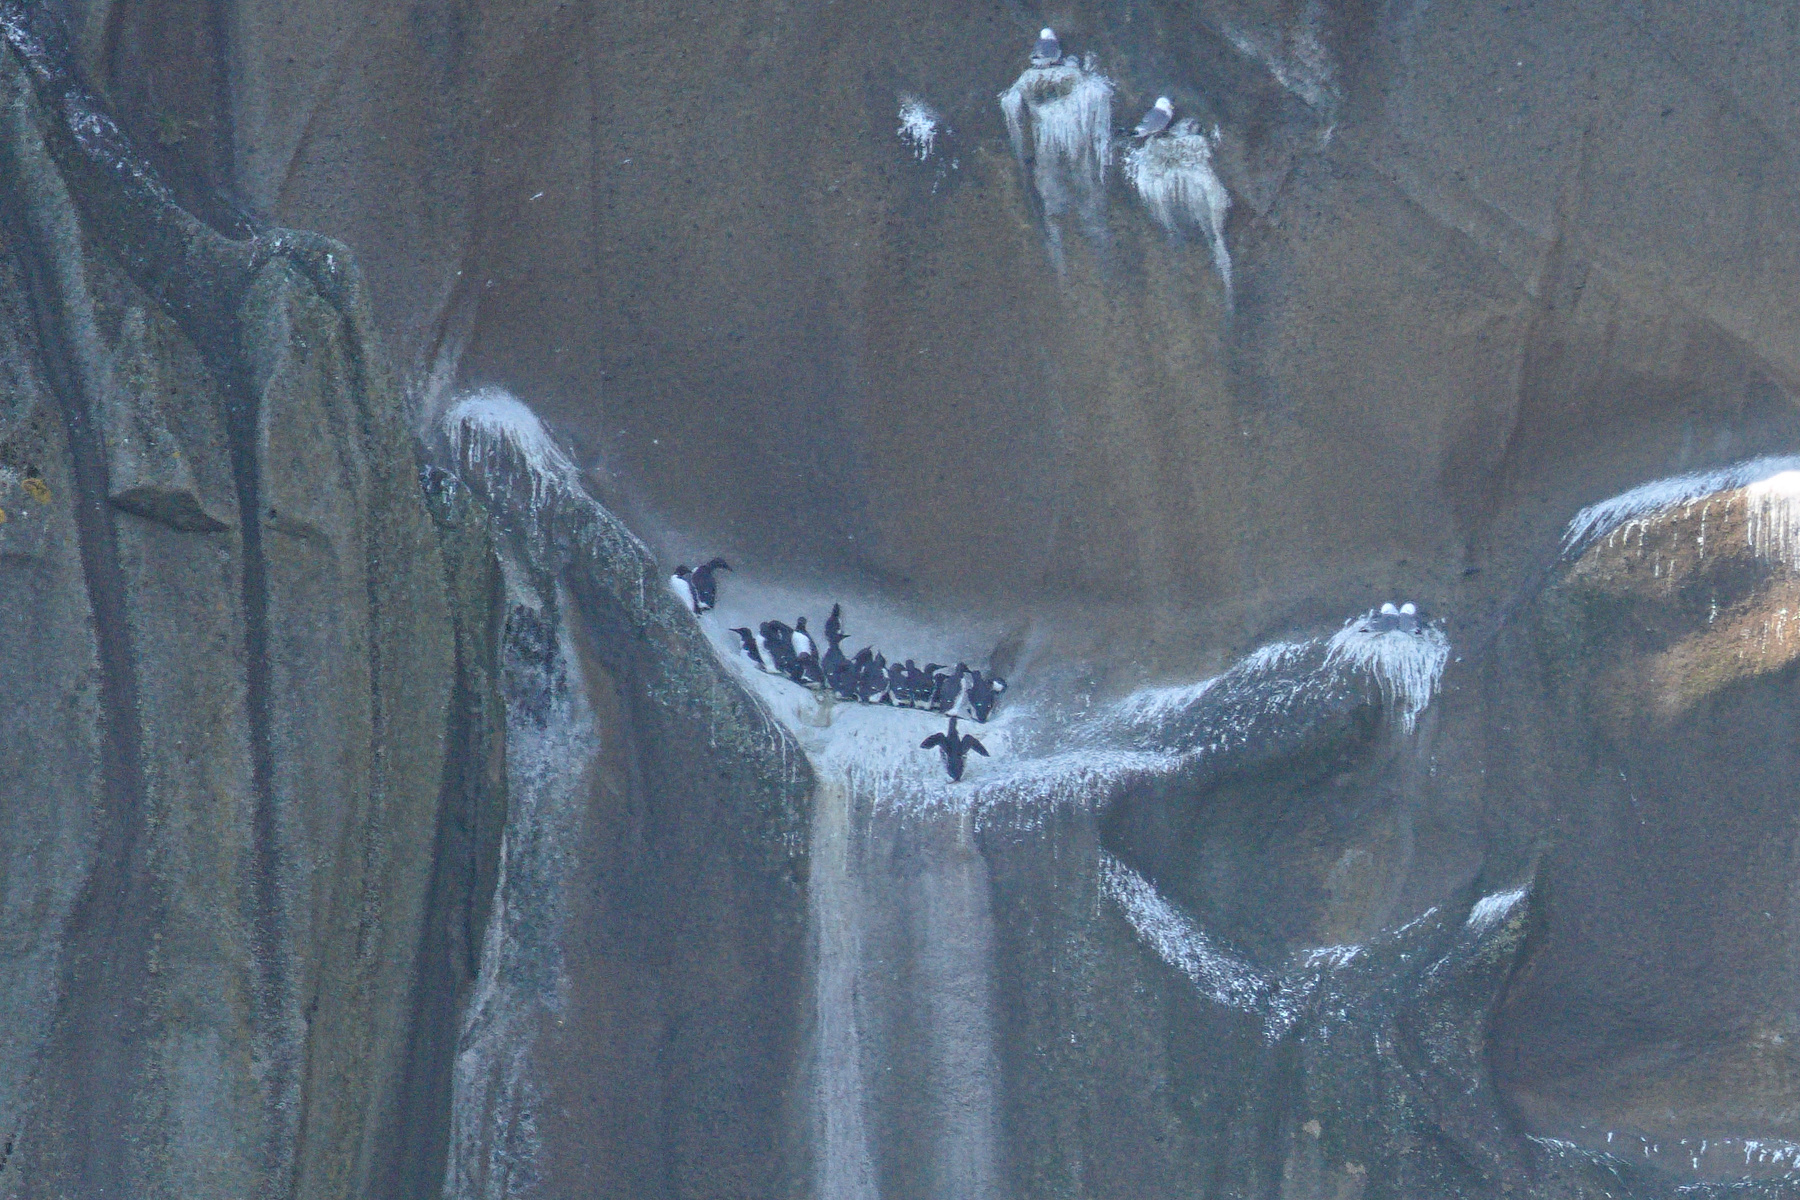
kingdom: Animalia
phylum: Chordata
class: Aves
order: Charadriiformes
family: Alcidae
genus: Uria
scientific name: Uria aalge
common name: Common murre
